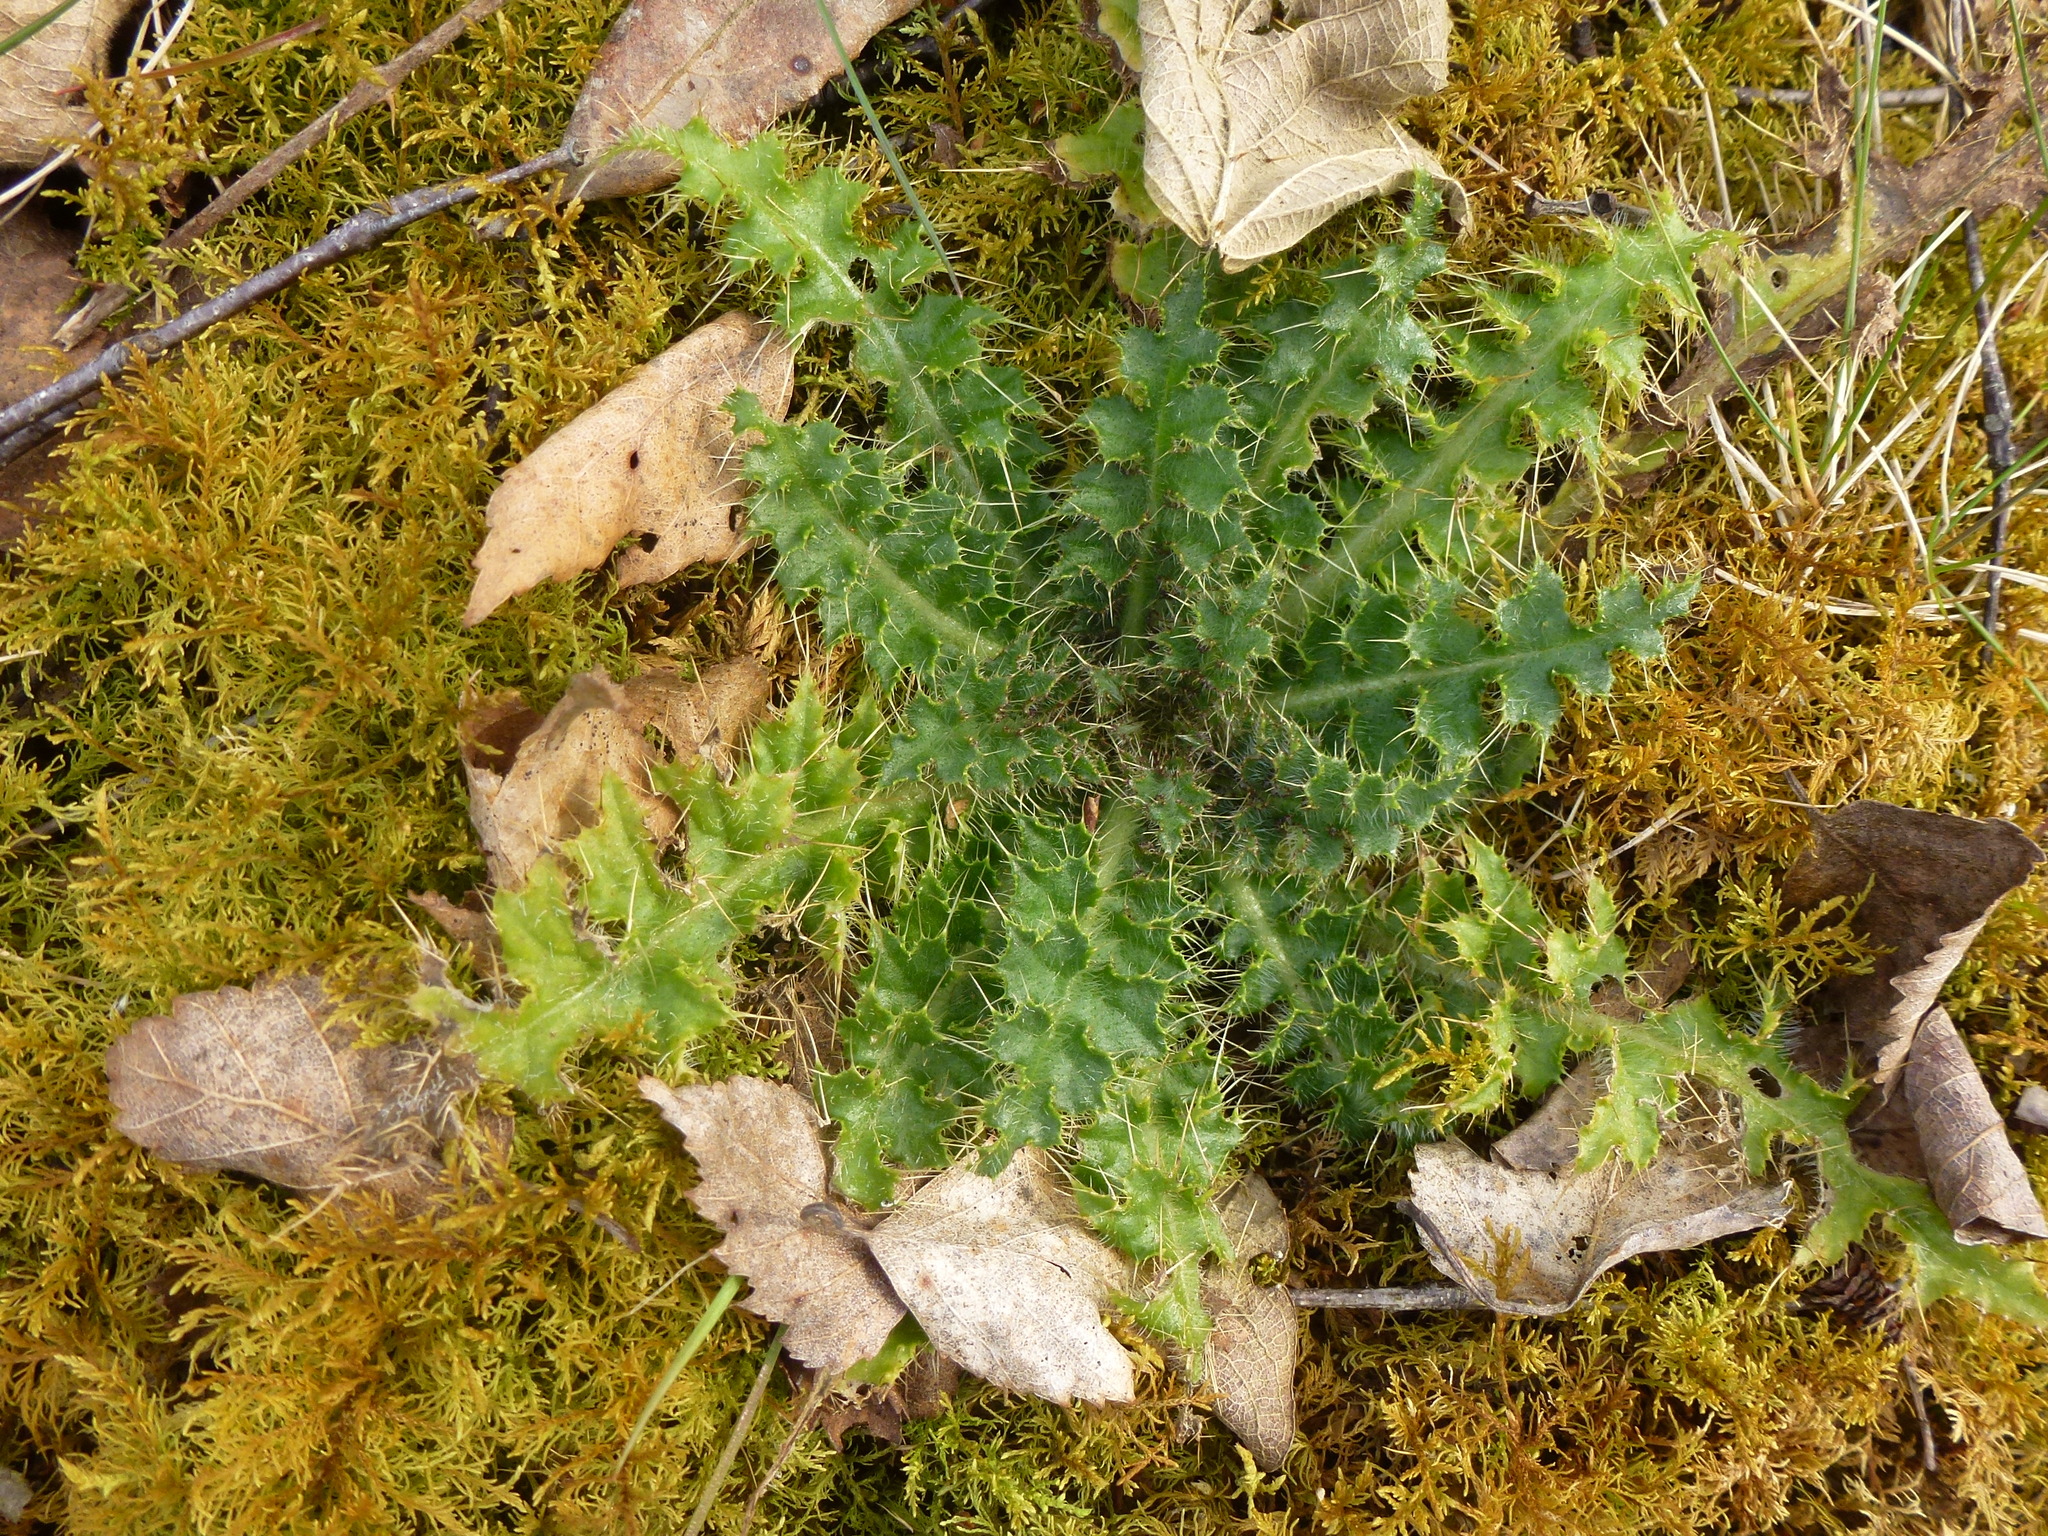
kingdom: Plantae
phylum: Tracheophyta
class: Magnoliopsida
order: Asterales
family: Asteraceae
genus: Cirsium
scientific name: Cirsium vulgare
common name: Bull thistle
